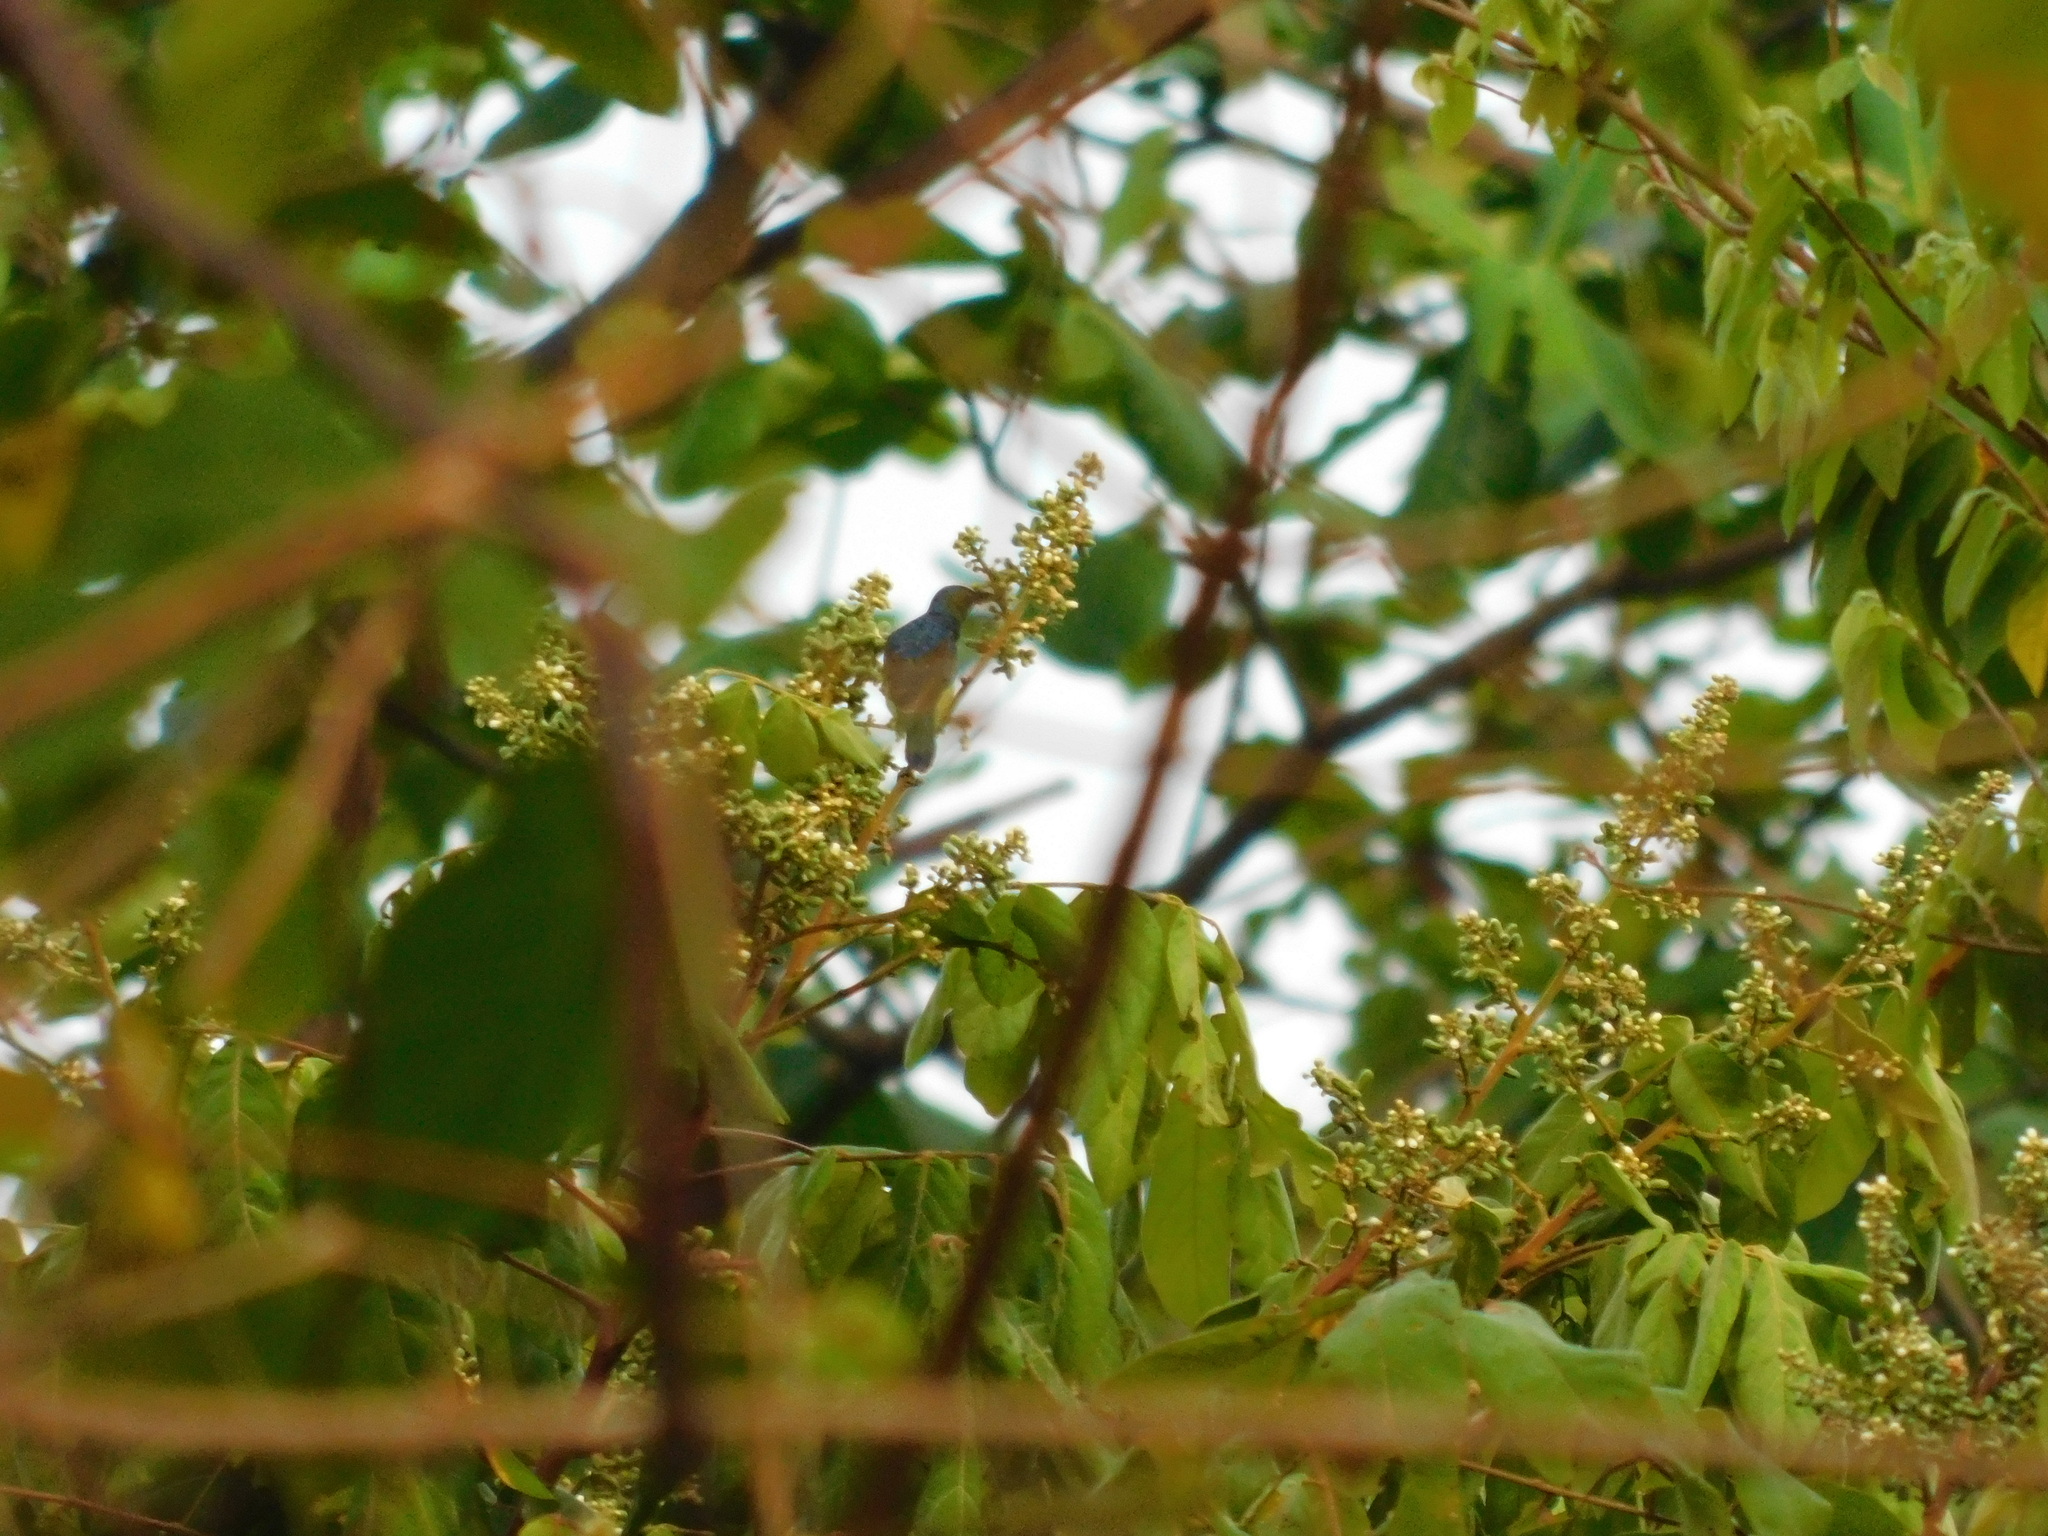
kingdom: Animalia
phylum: Chordata
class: Aves
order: Passeriformes
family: Nectariniidae
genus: Anthreptes
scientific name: Anthreptes malacensis
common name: Brown-throated sunbird
